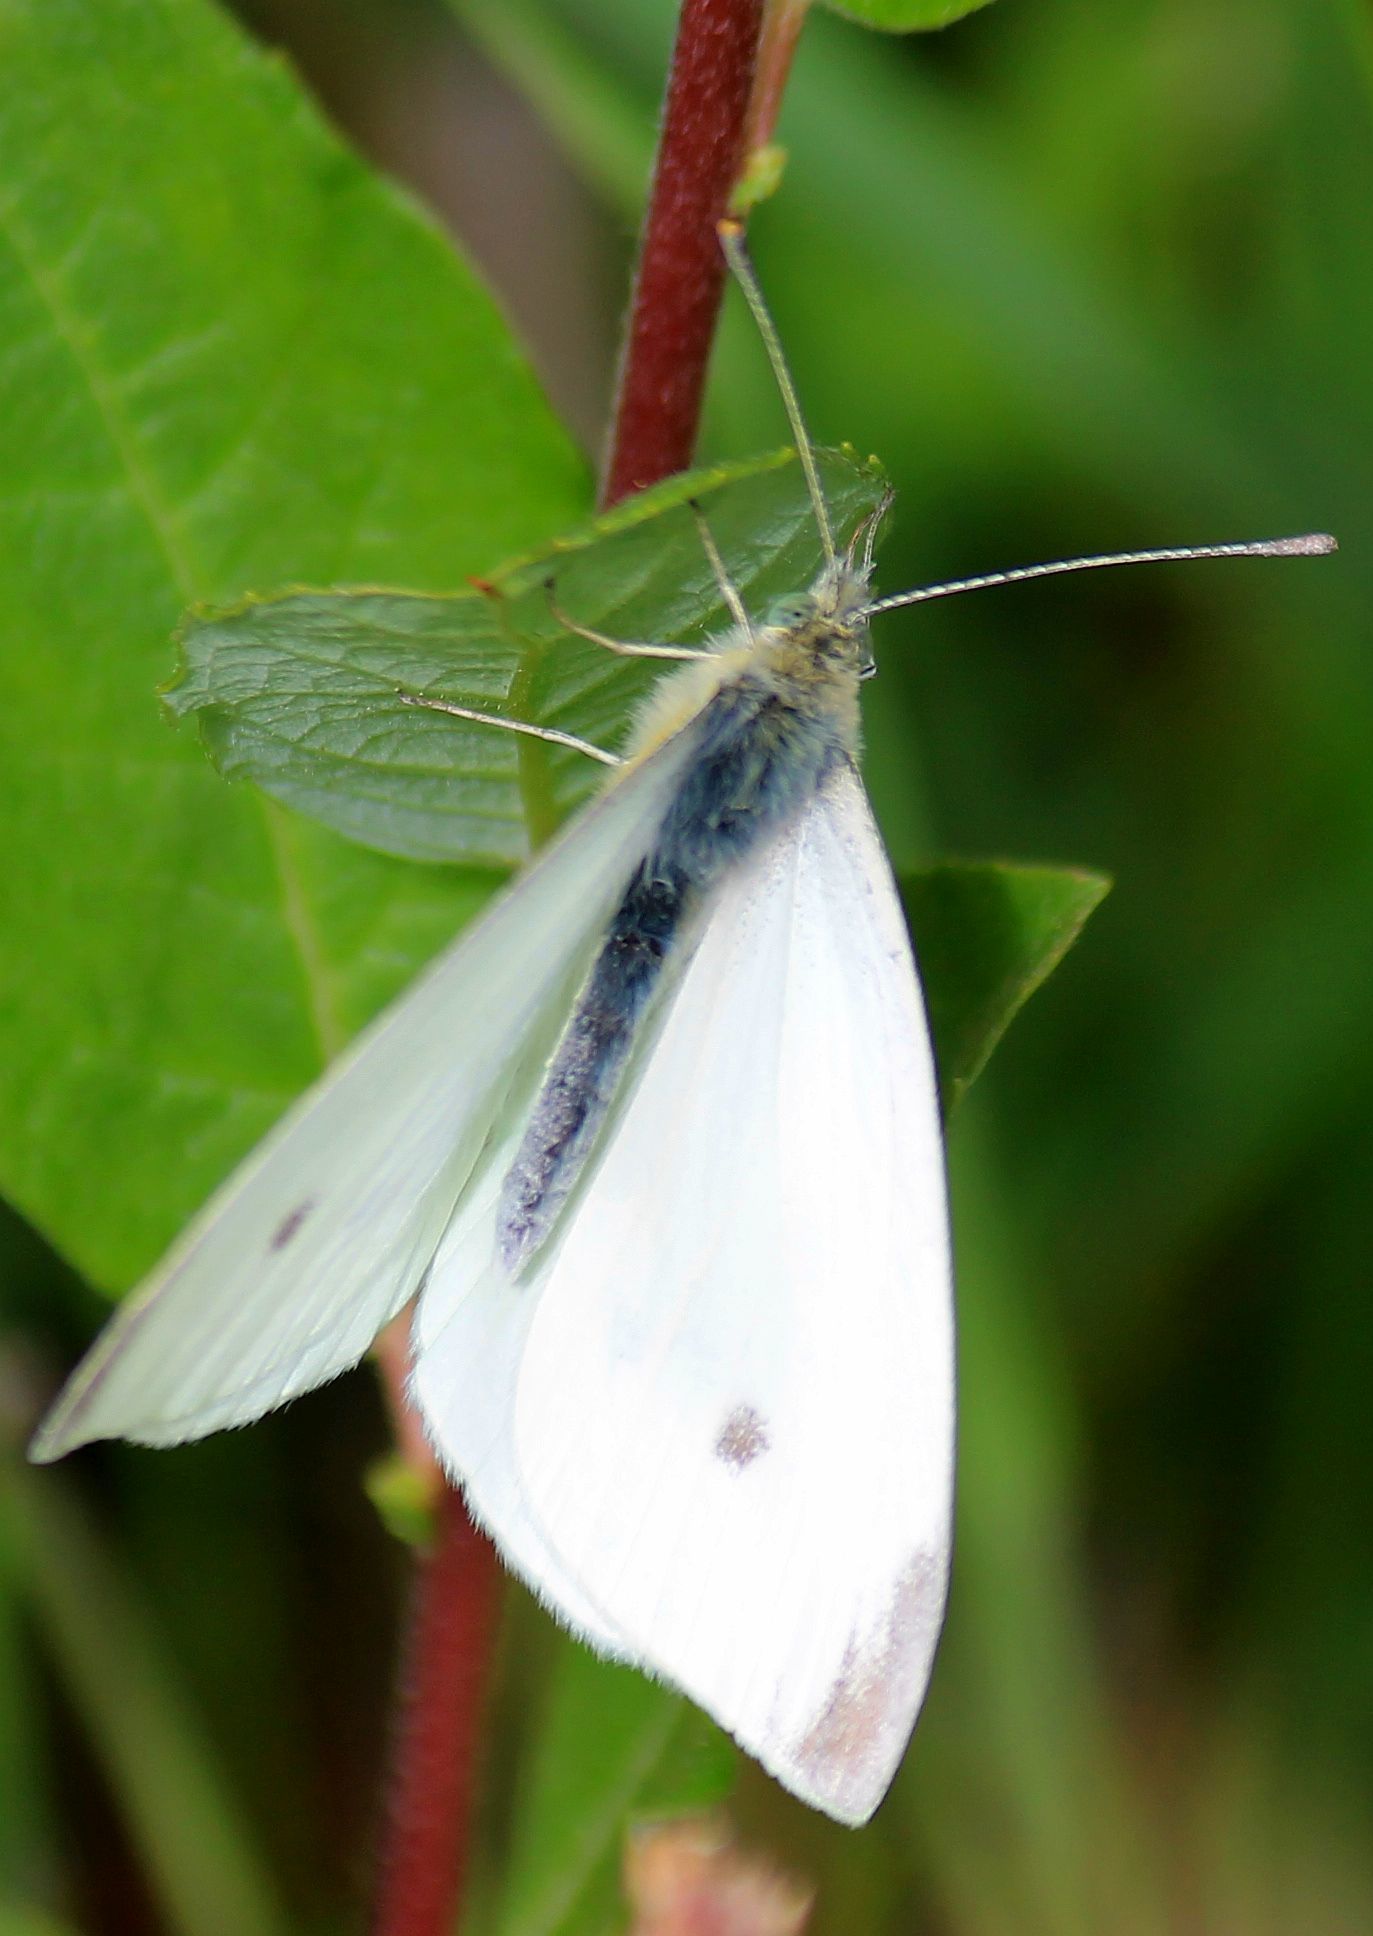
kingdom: Animalia
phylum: Arthropoda
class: Insecta
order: Lepidoptera
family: Pieridae
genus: Pieris
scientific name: Pieris rapae
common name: Small white
